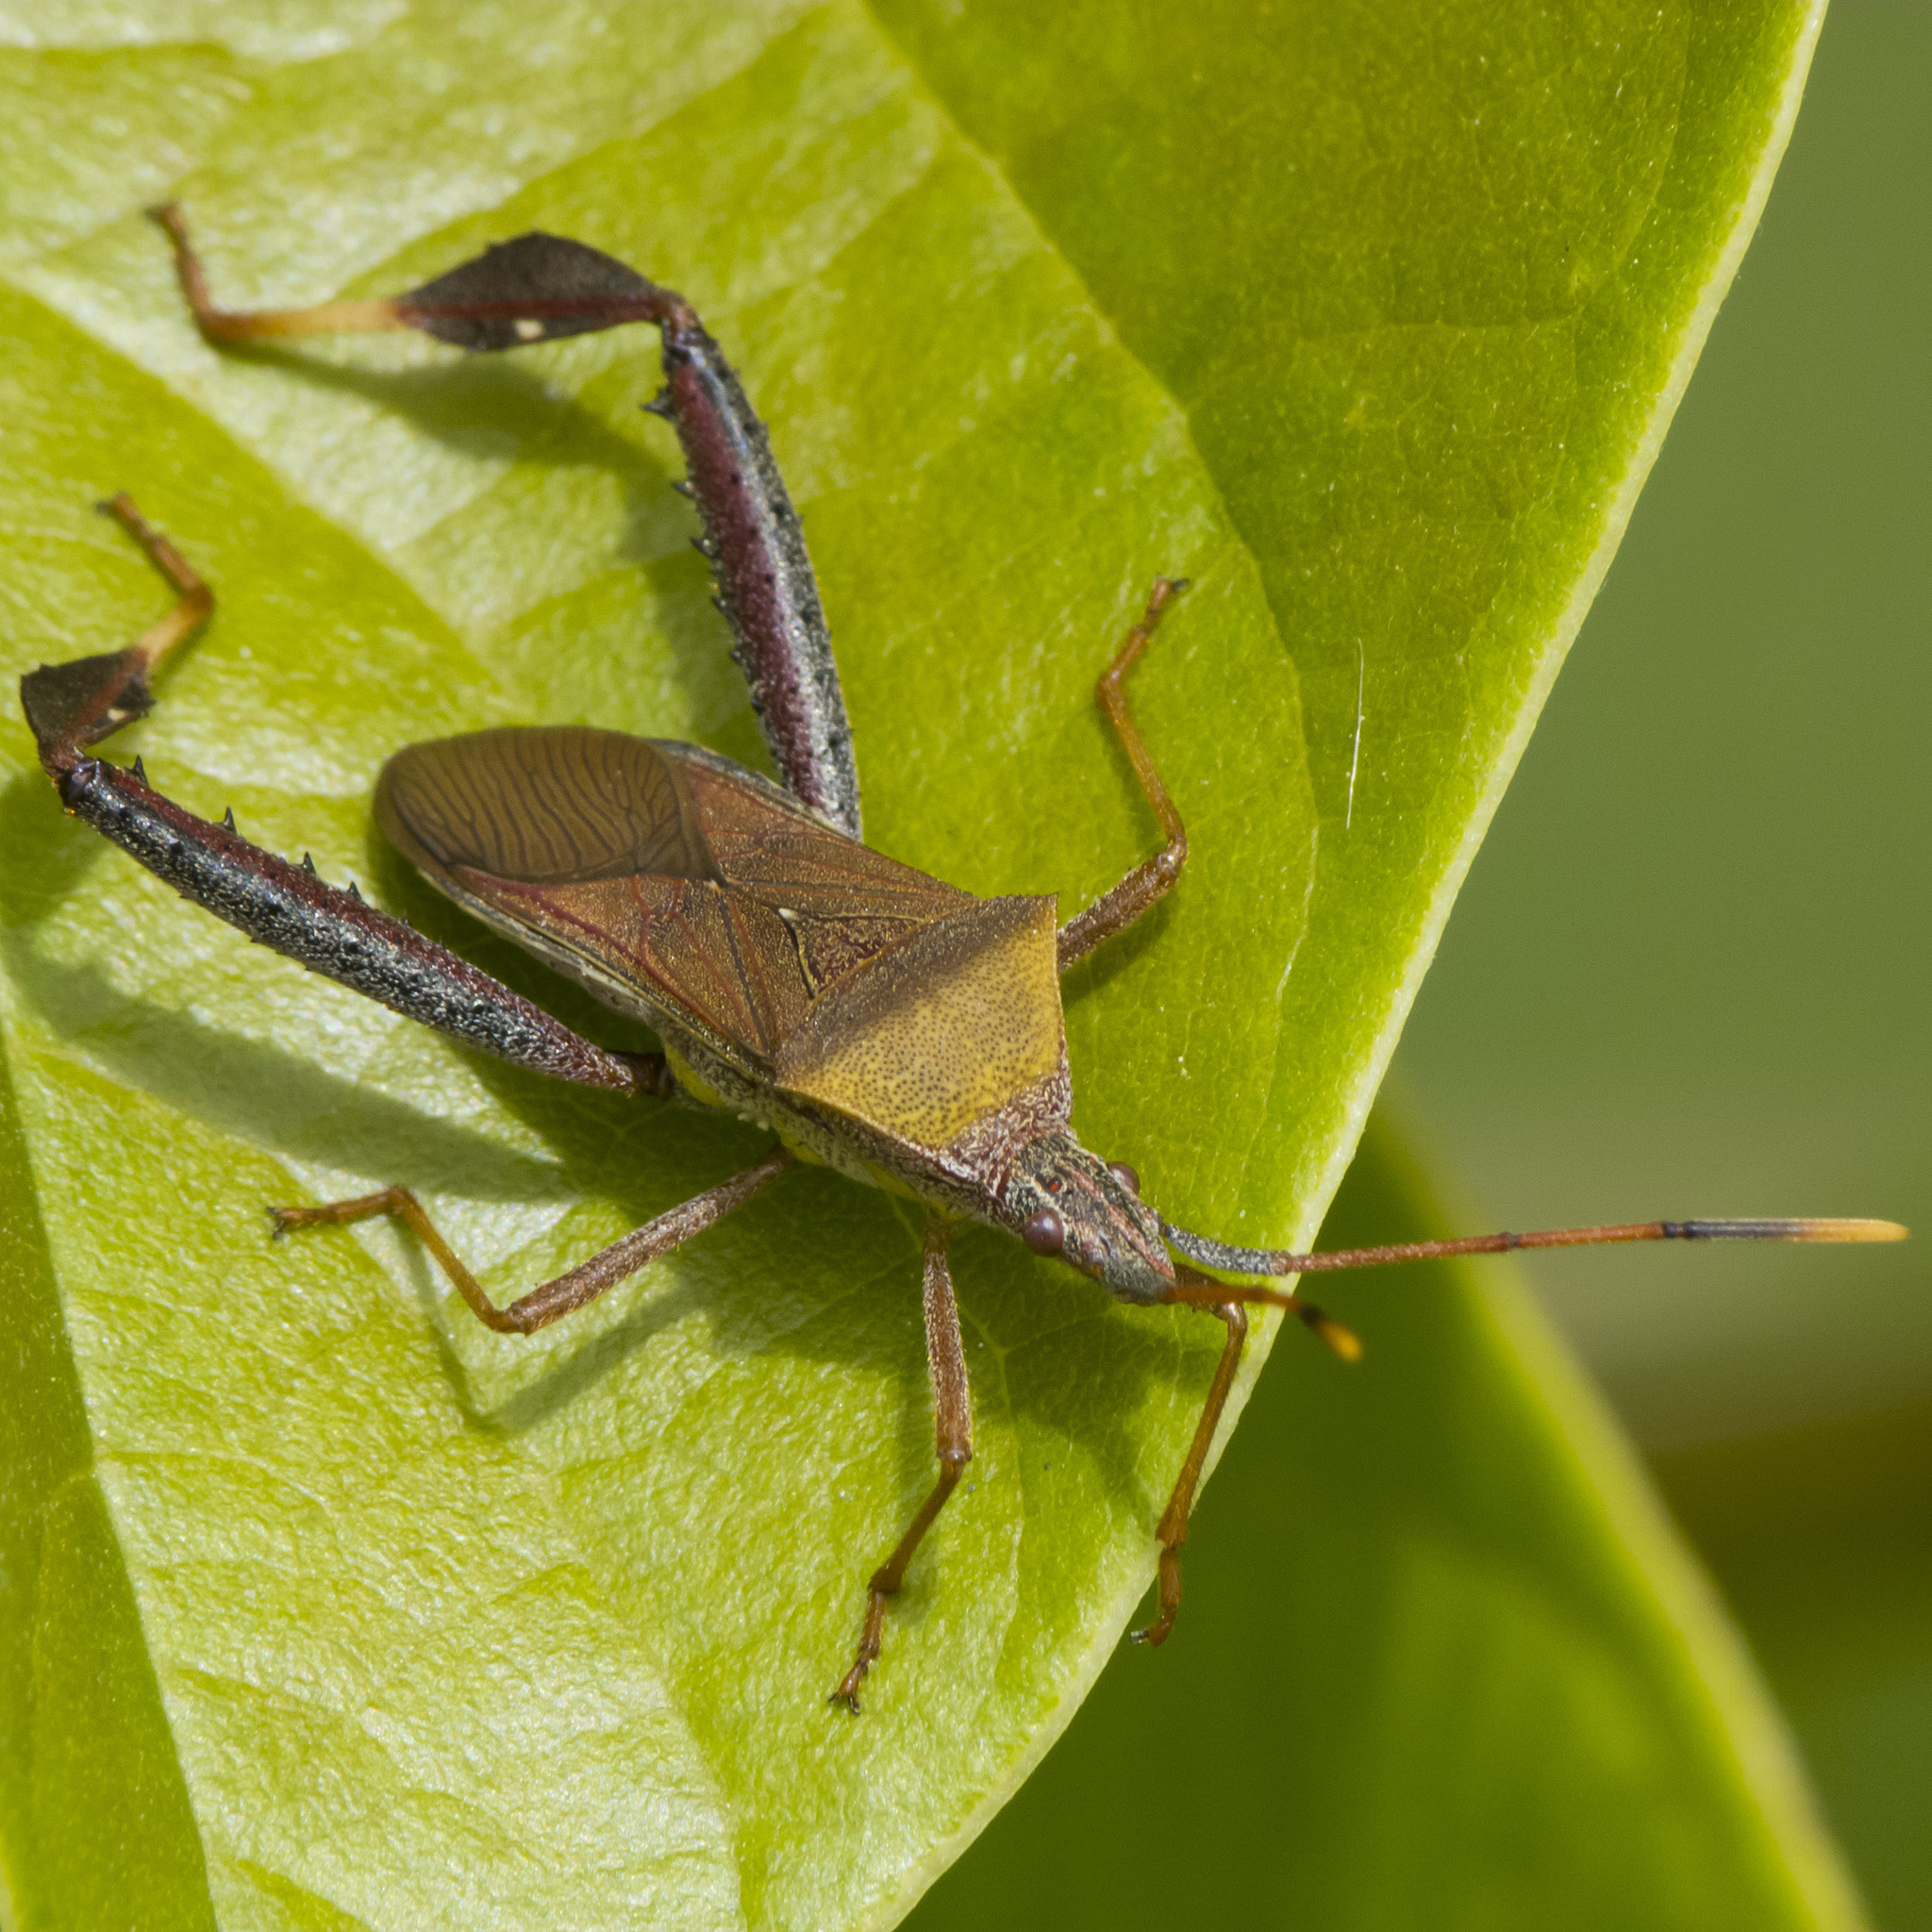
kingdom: Animalia
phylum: Arthropoda
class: Insecta
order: Hemiptera
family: Coreidae
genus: Leptoglossus
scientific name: Leptoglossus cinctus
